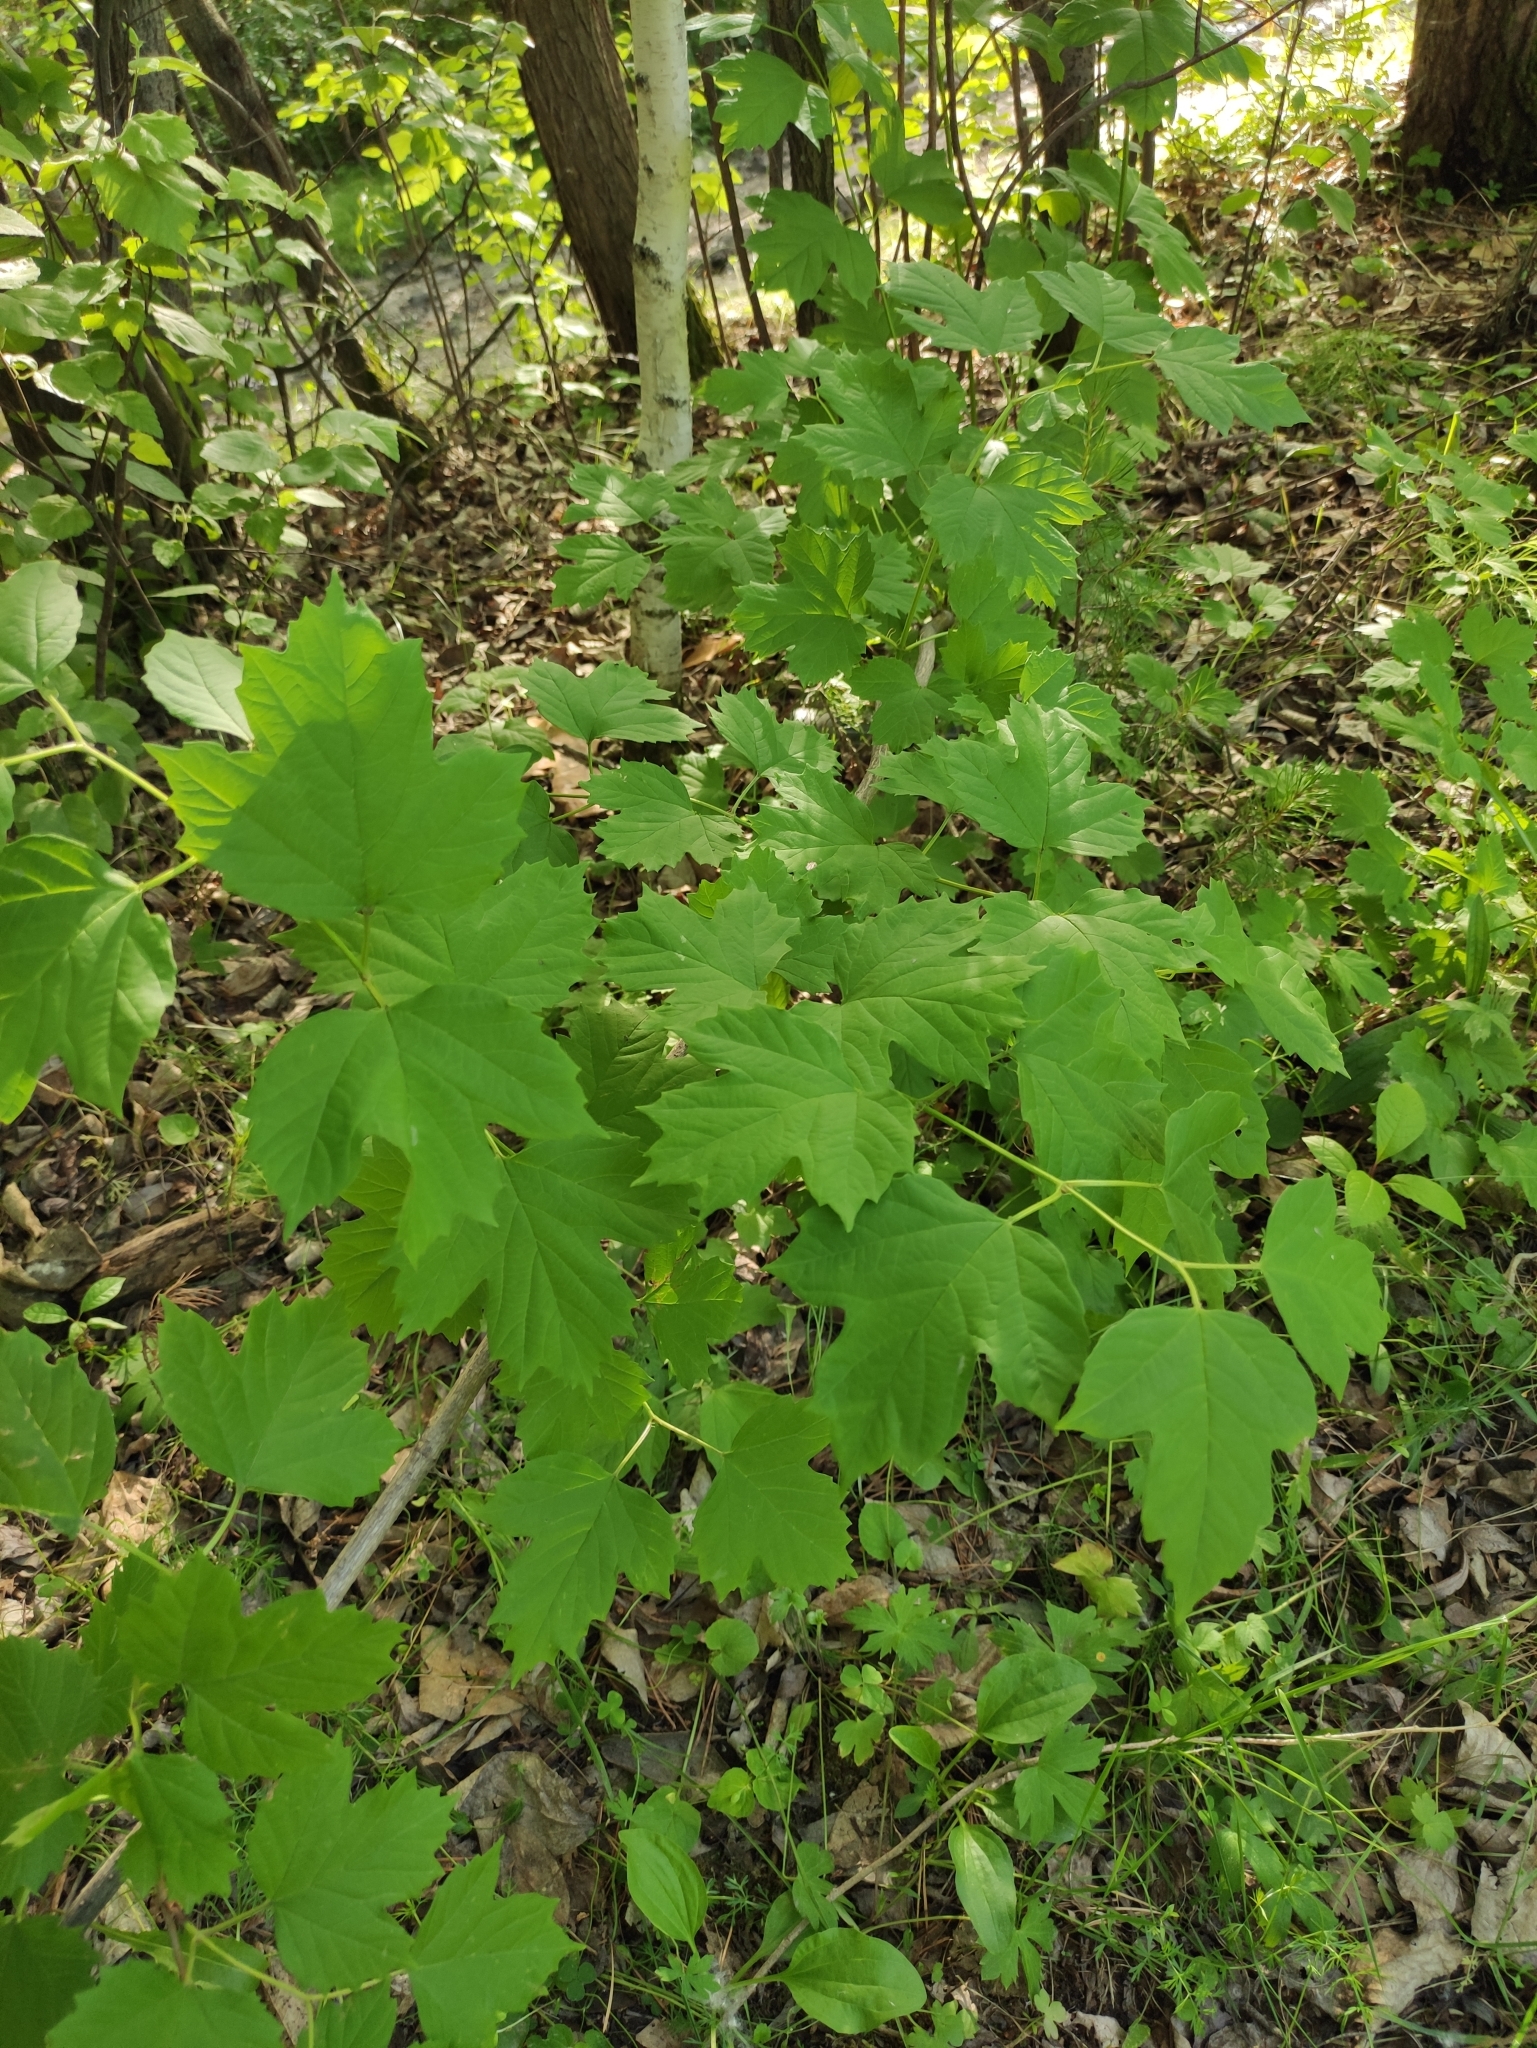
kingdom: Plantae
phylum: Tracheophyta
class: Magnoliopsida
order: Dipsacales
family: Viburnaceae
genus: Viburnum
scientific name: Viburnum opulus
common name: Guelder-rose
